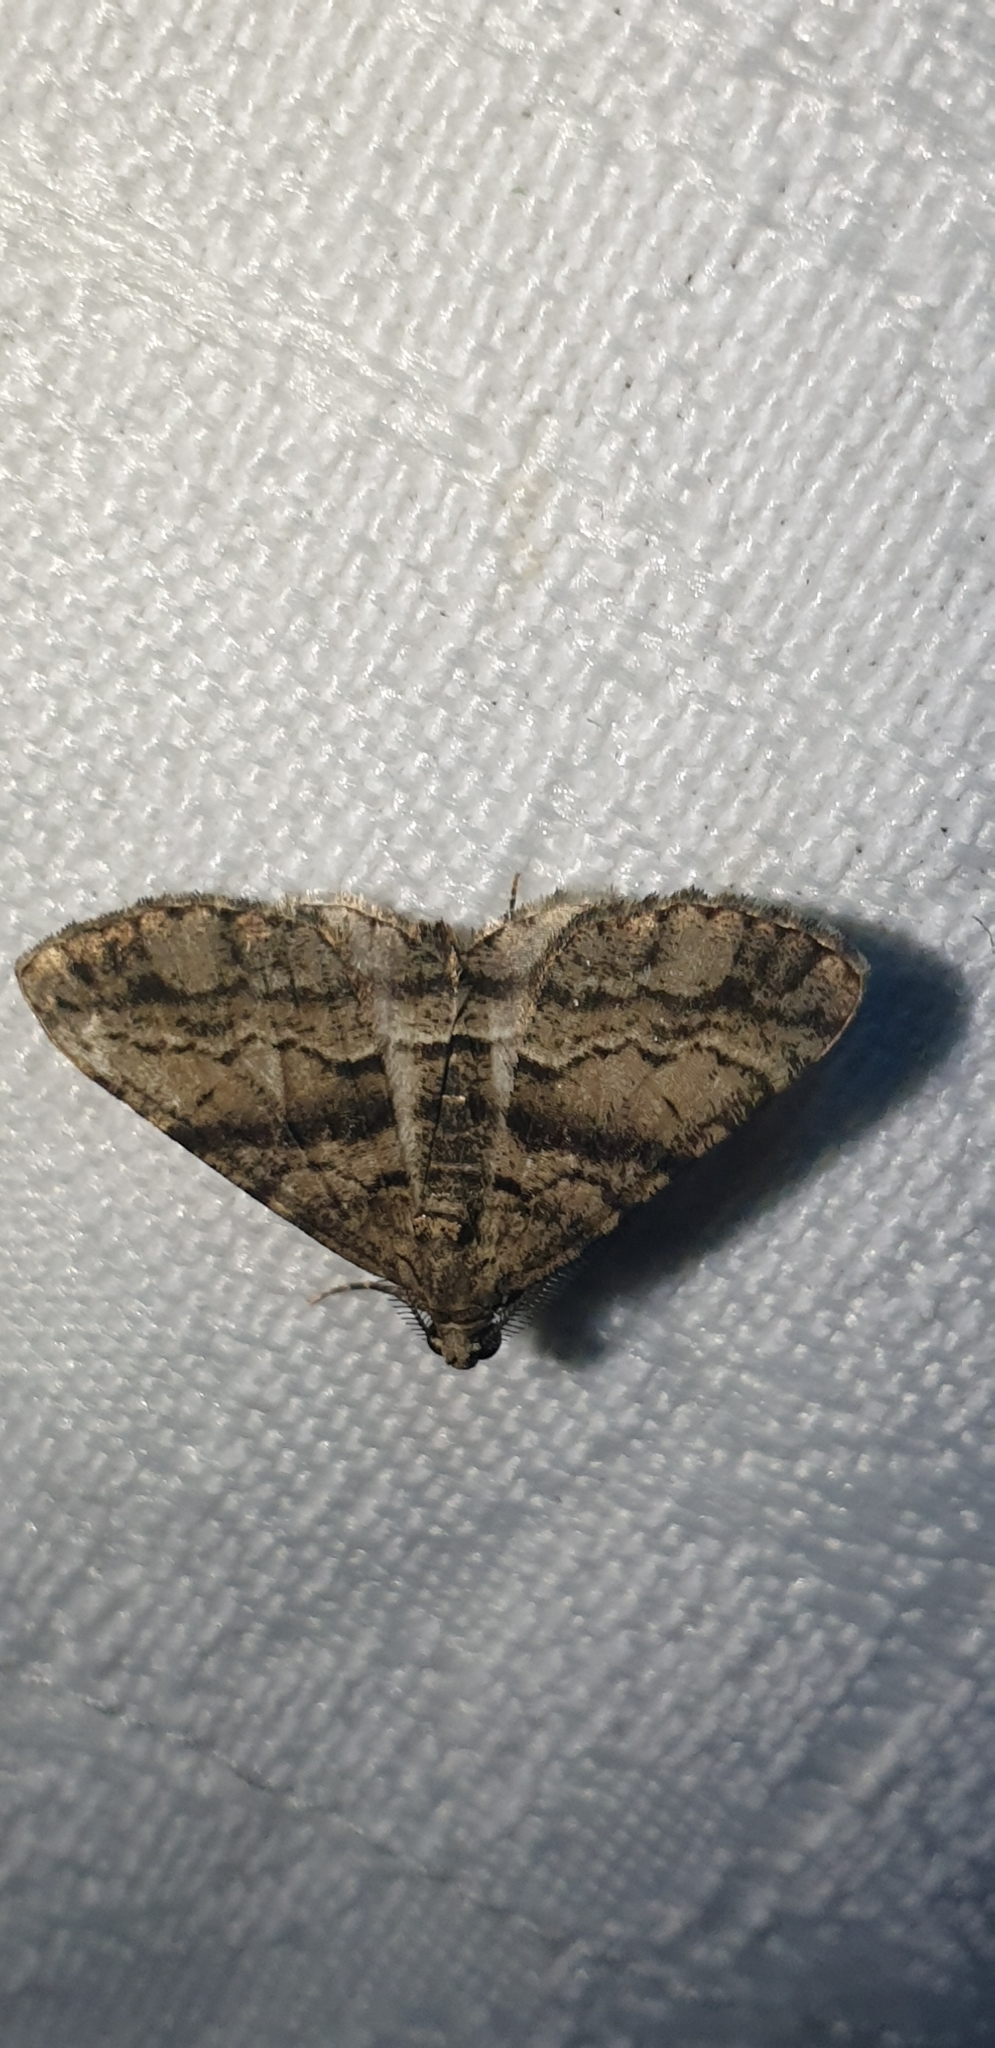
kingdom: Animalia
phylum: Arthropoda
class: Insecta
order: Lepidoptera
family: Geometridae
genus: Lipogya
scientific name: Lipogya eutheta
